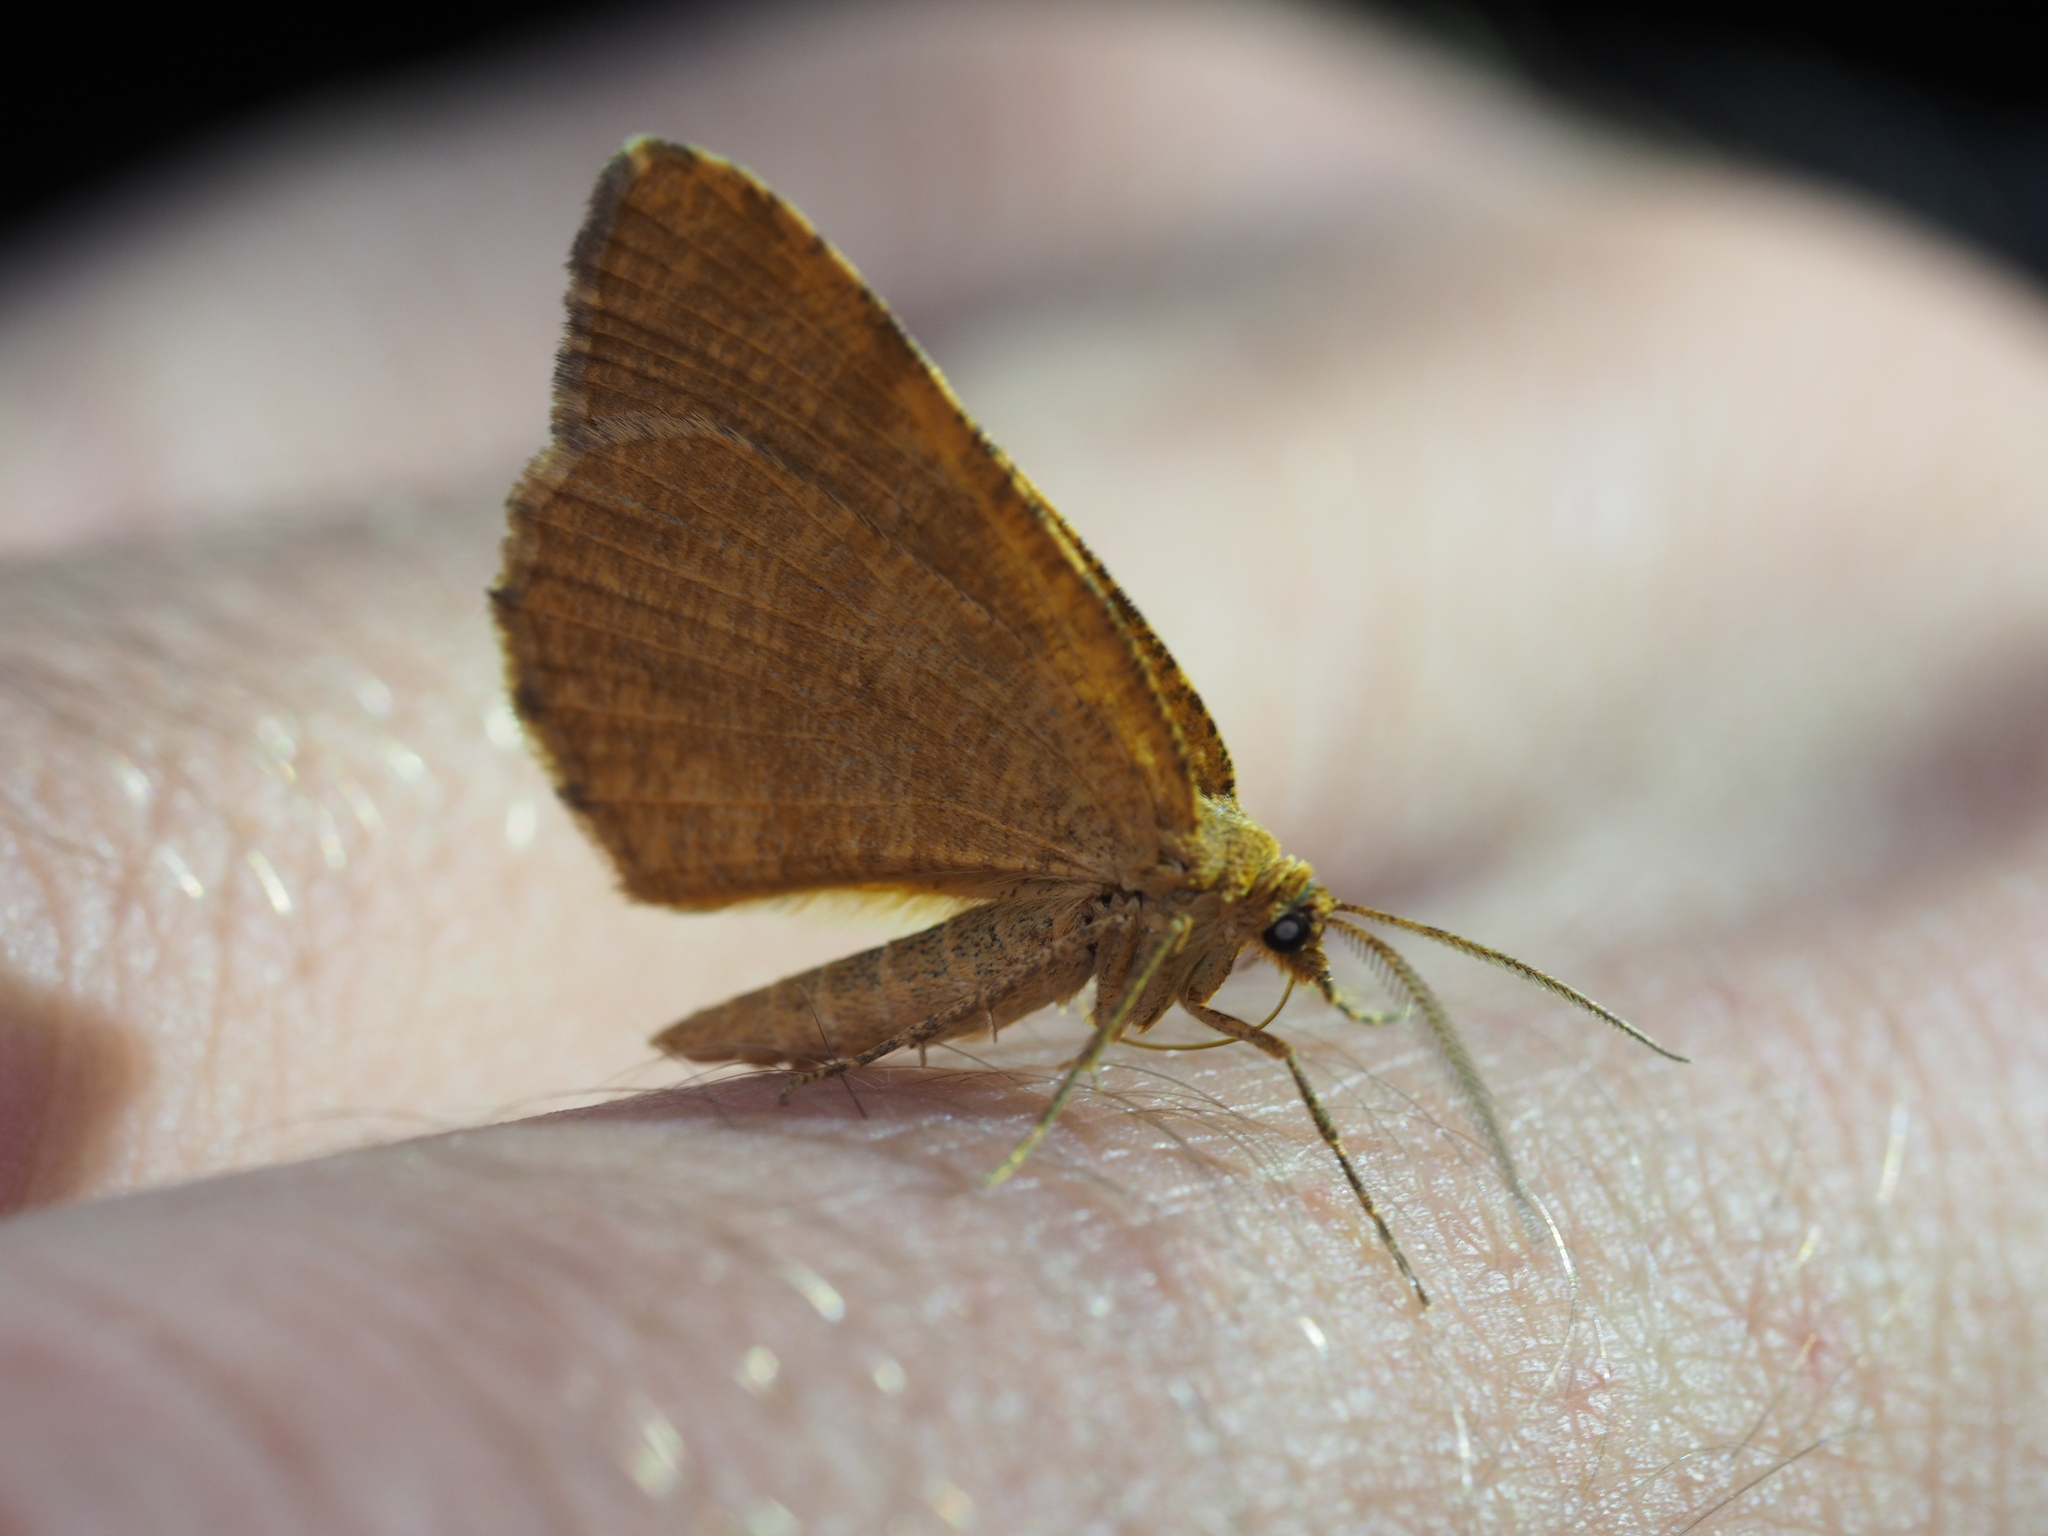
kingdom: Animalia
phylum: Arthropoda
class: Insecta
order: Lepidoptera
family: Geometridae
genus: Macaria
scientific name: Macaria brunneata
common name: Rannoch looper
